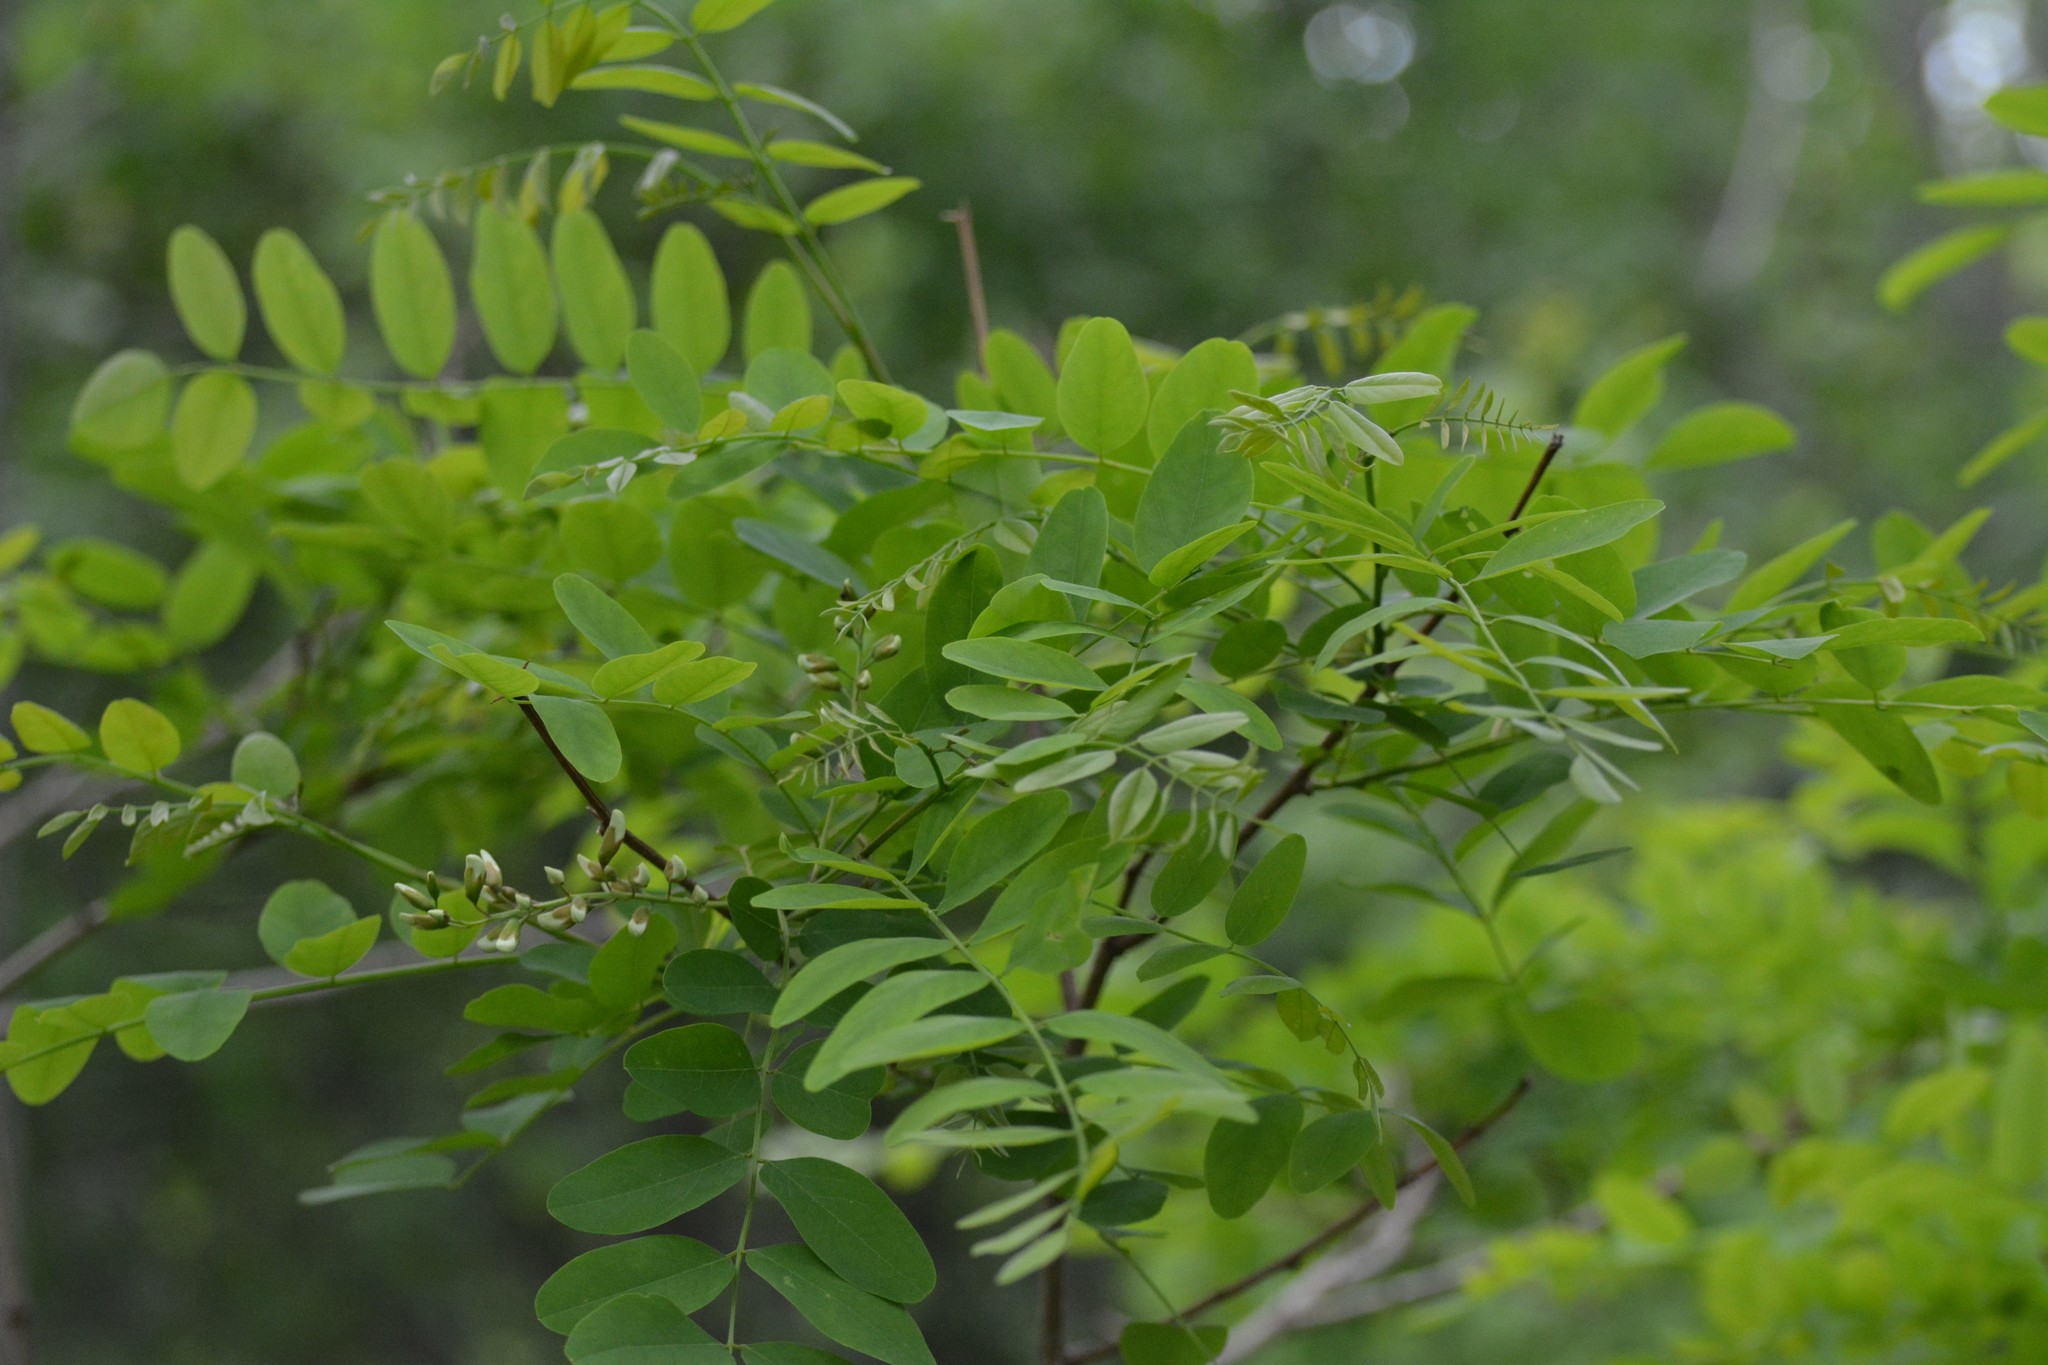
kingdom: Plantae
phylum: Tracheophyta
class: Magnoliopsida
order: Fabales
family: Fabaceae
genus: Robinia
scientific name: Robinia pseudoacacia
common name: Black locust
